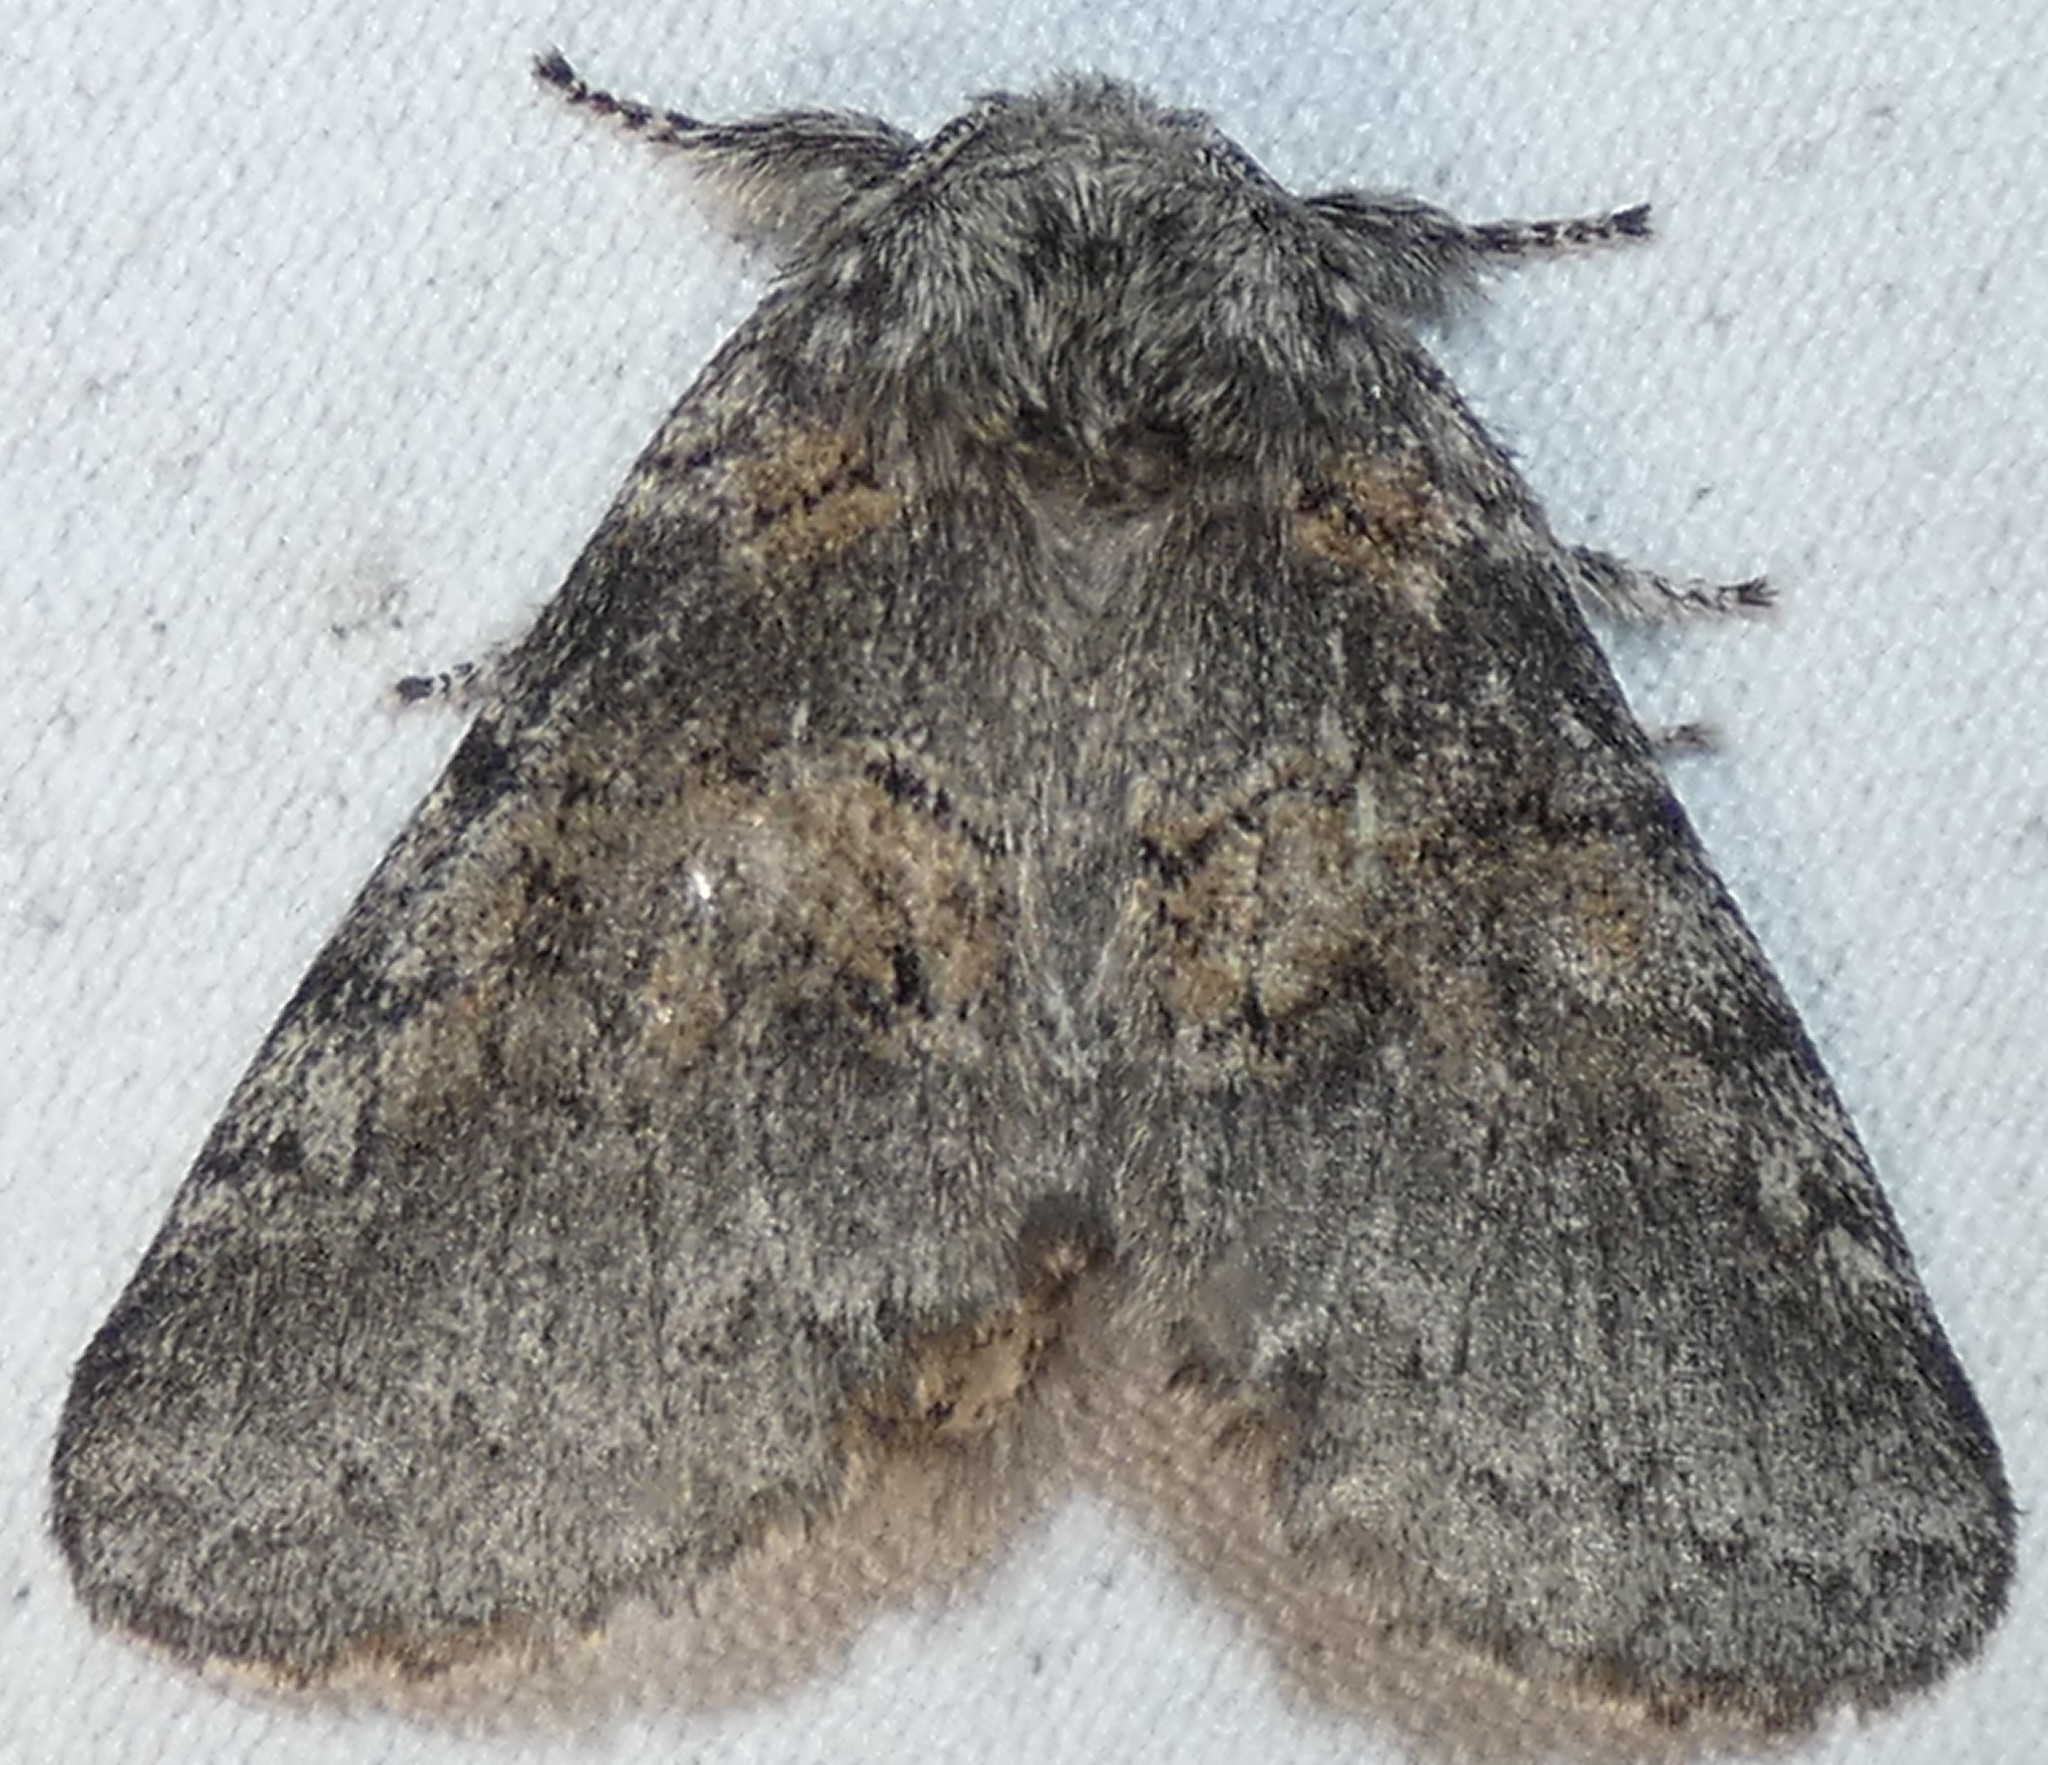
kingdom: Animalia
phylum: Arthropoda
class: Insecta
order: Lepidoptera
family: Notodontidae
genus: Gluphisia
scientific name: Gluphisia septentrionis
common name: Common gluphisia
